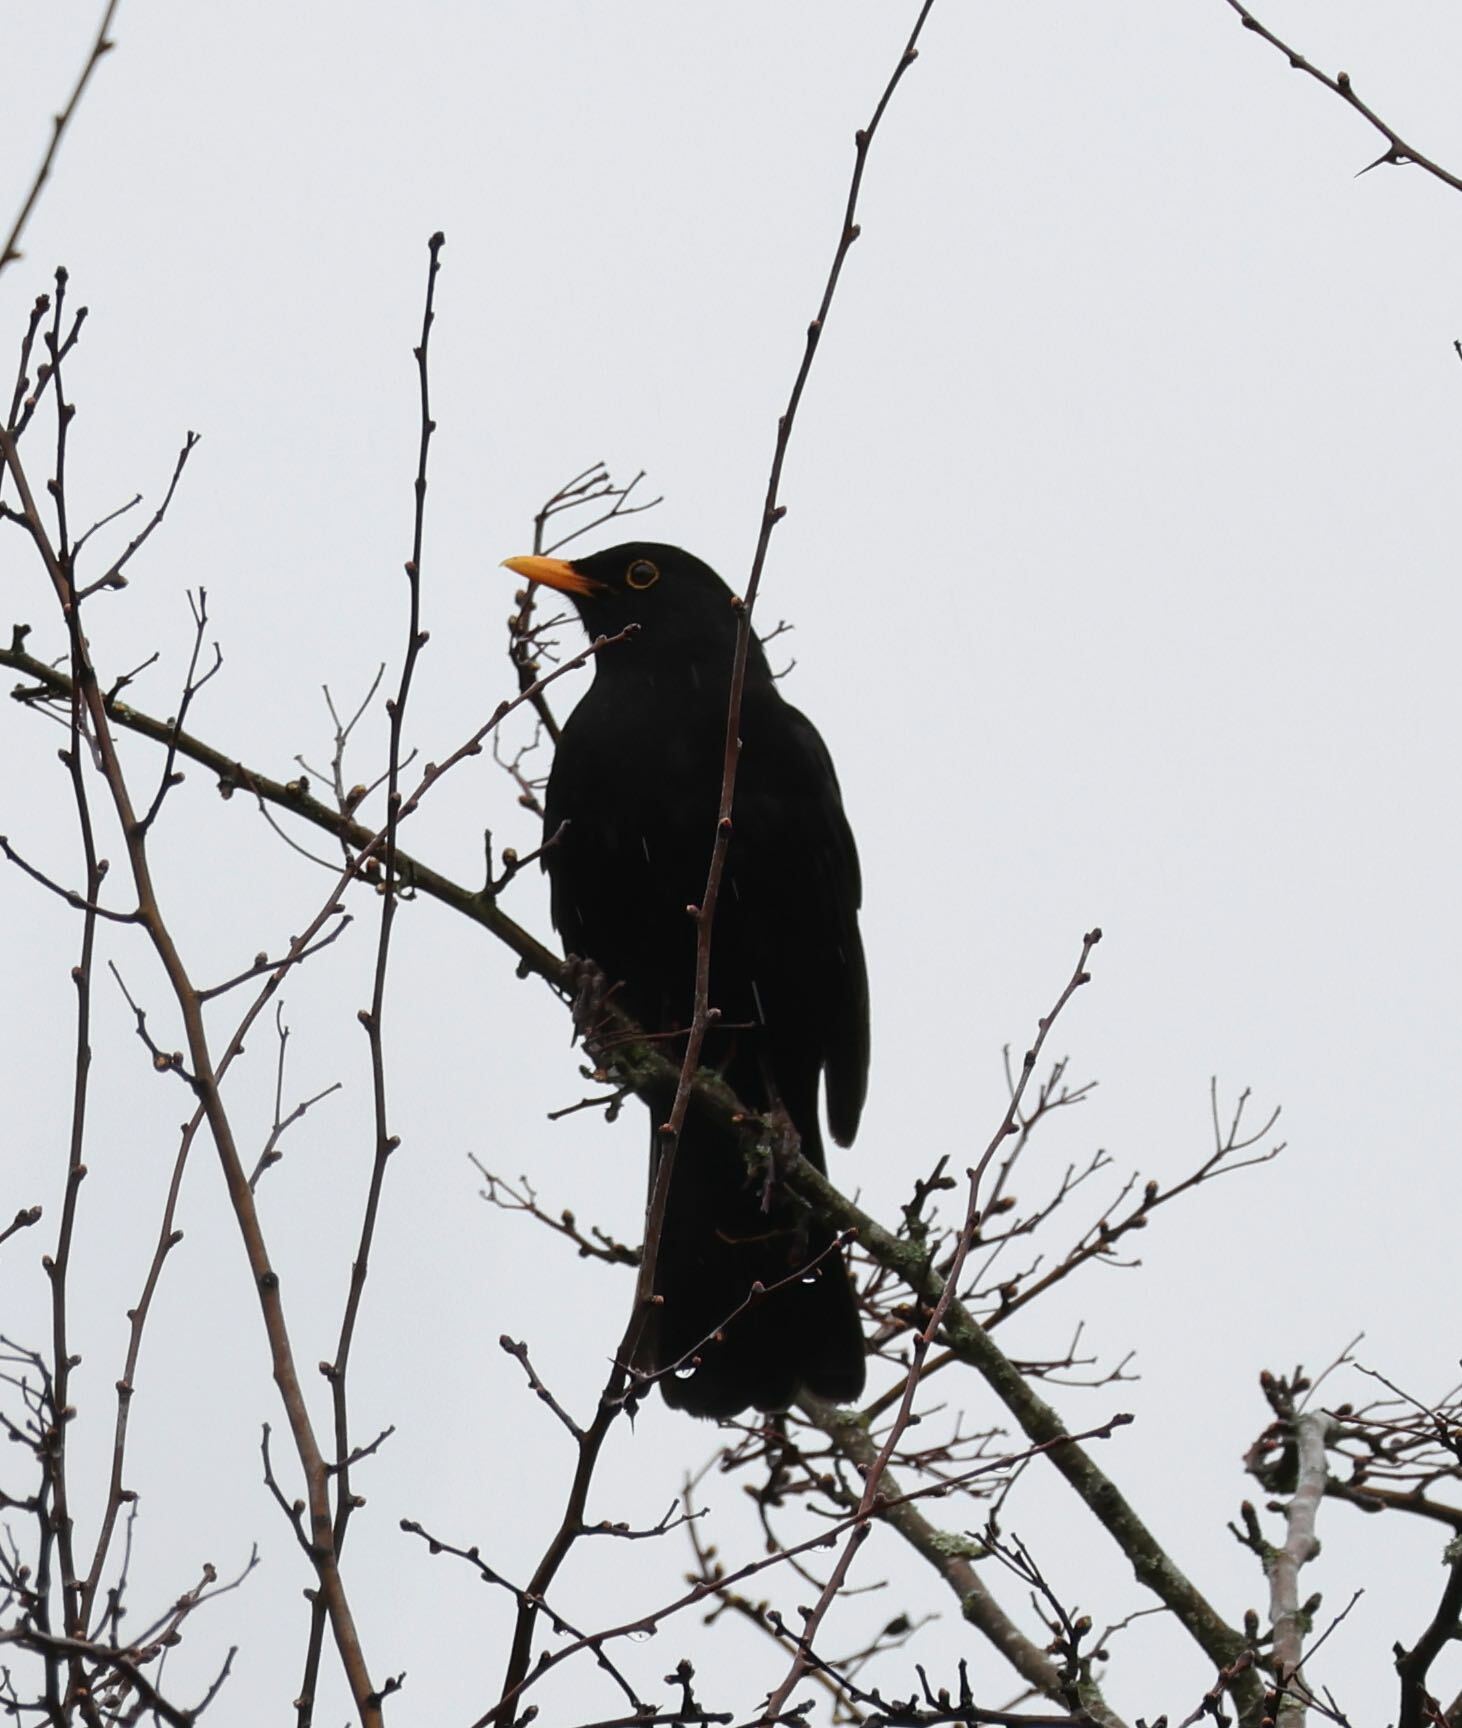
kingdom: Animalia
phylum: Chordata
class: Aves
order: Passeriformes
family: Turdidae
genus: Turdus
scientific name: Turdus merula
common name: Common blackbird
